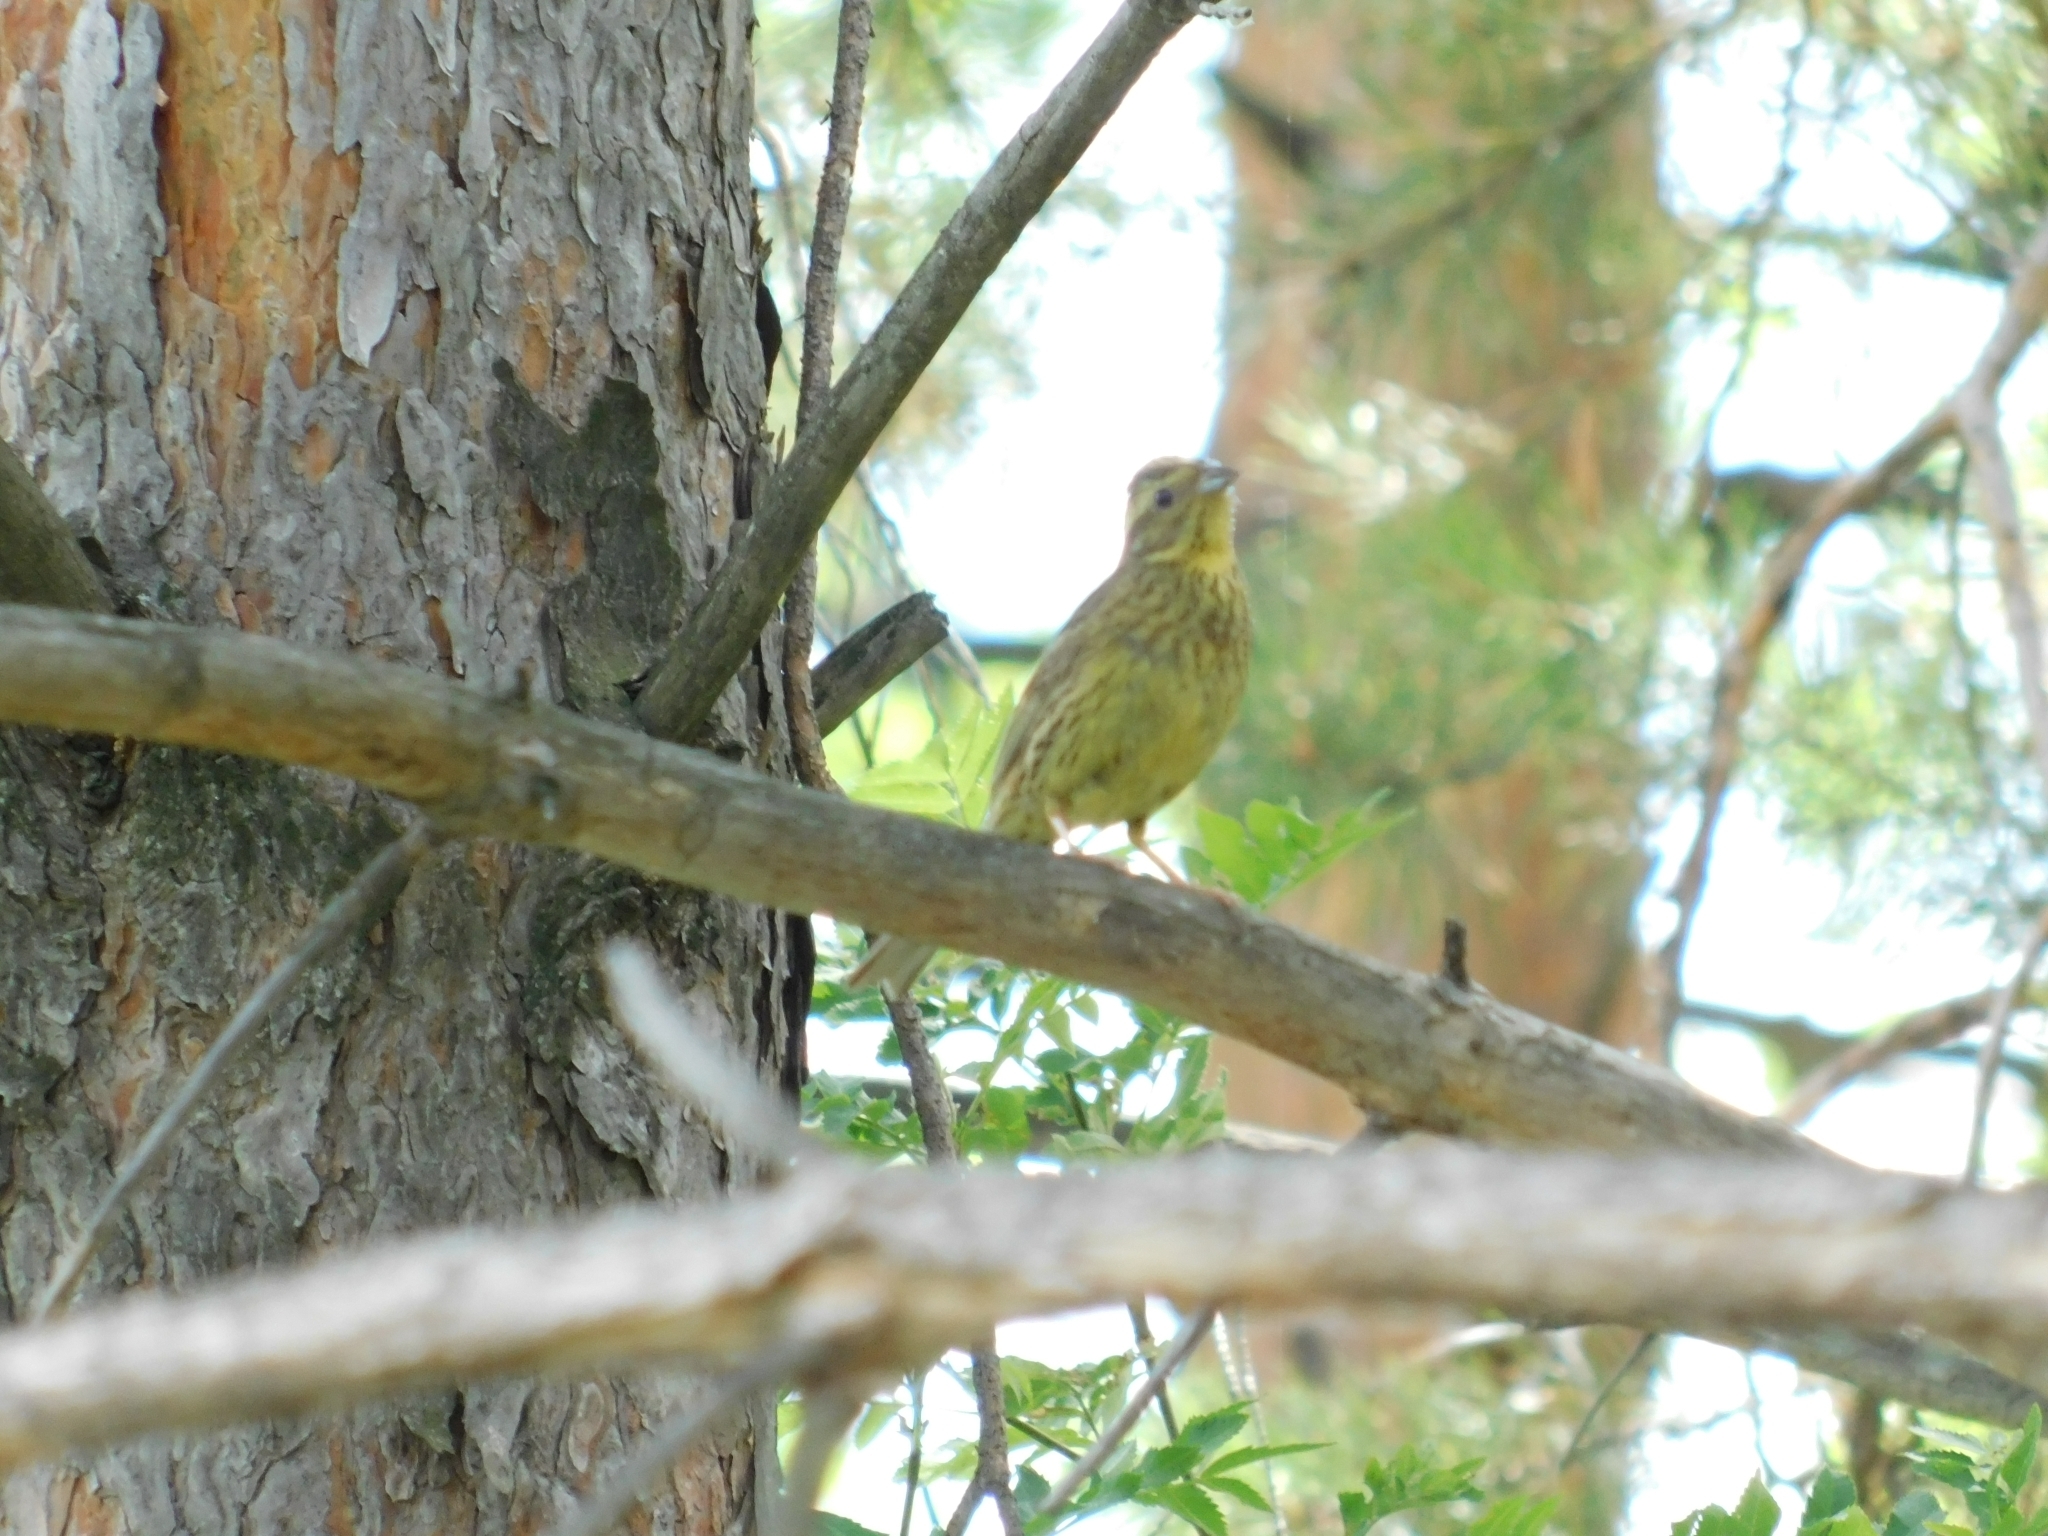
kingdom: Animalia
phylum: Chordata
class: Aves
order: Passeriformes
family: Emberizidae
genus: Emberiza
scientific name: Emberiza citrinella
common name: Yellowhammer
